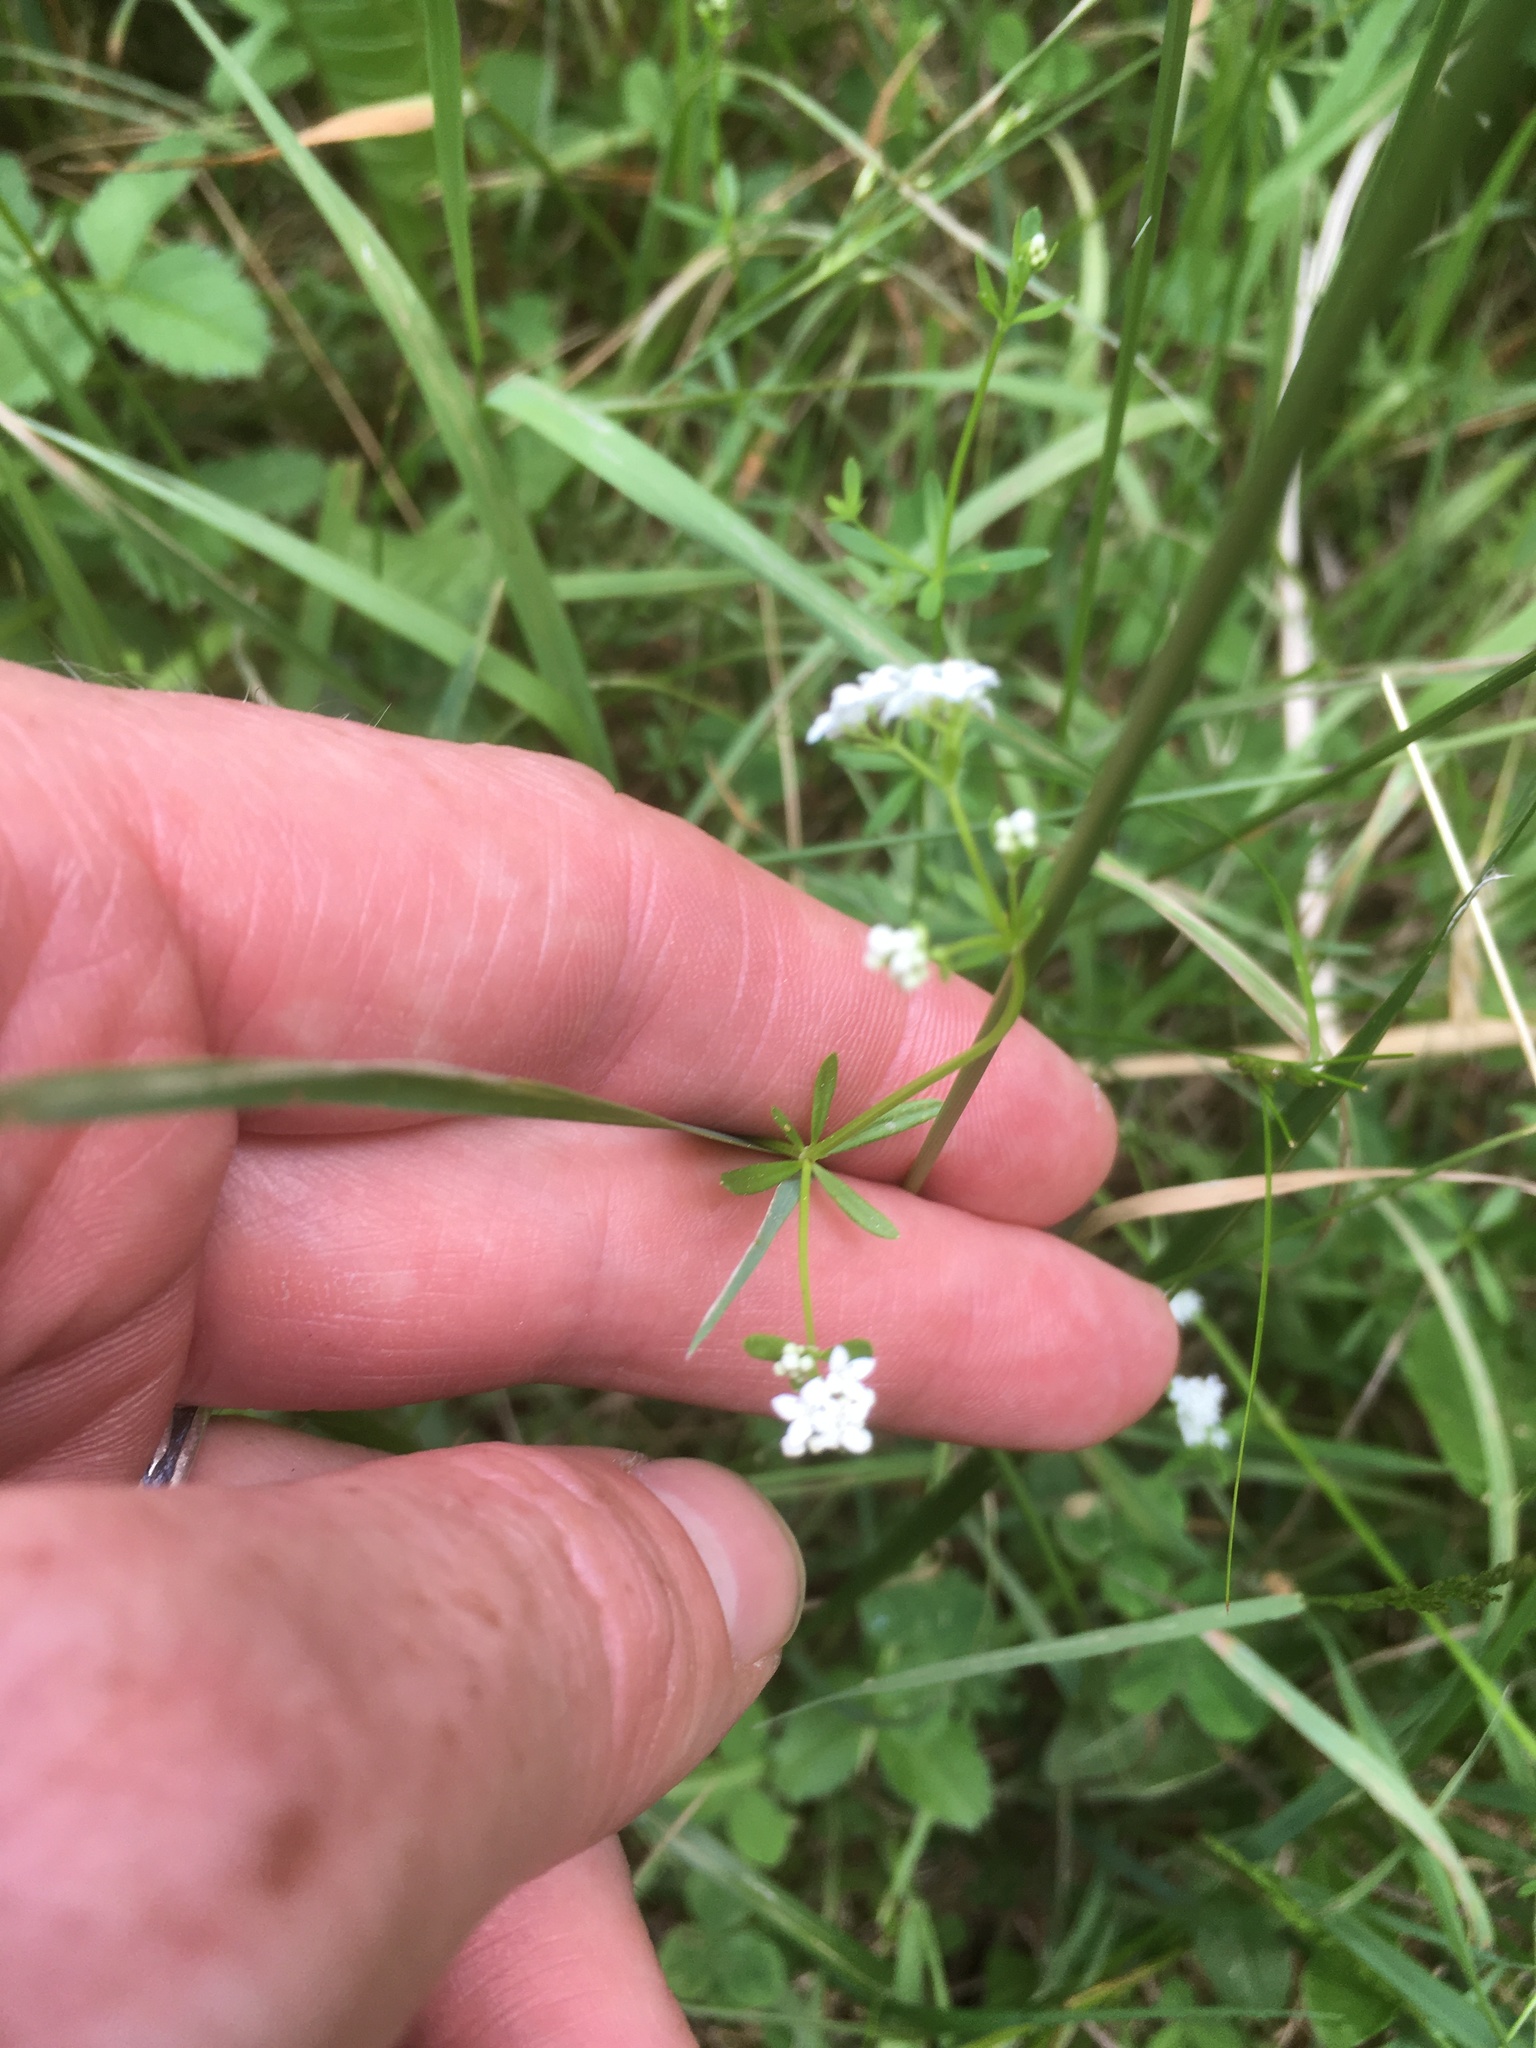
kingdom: Plantae
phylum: Tracheophyta
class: Magnoliopsida
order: Gentianales
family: Rubiaceae
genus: Galium
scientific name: Galium palustre
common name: Common marsh-bedstraw
